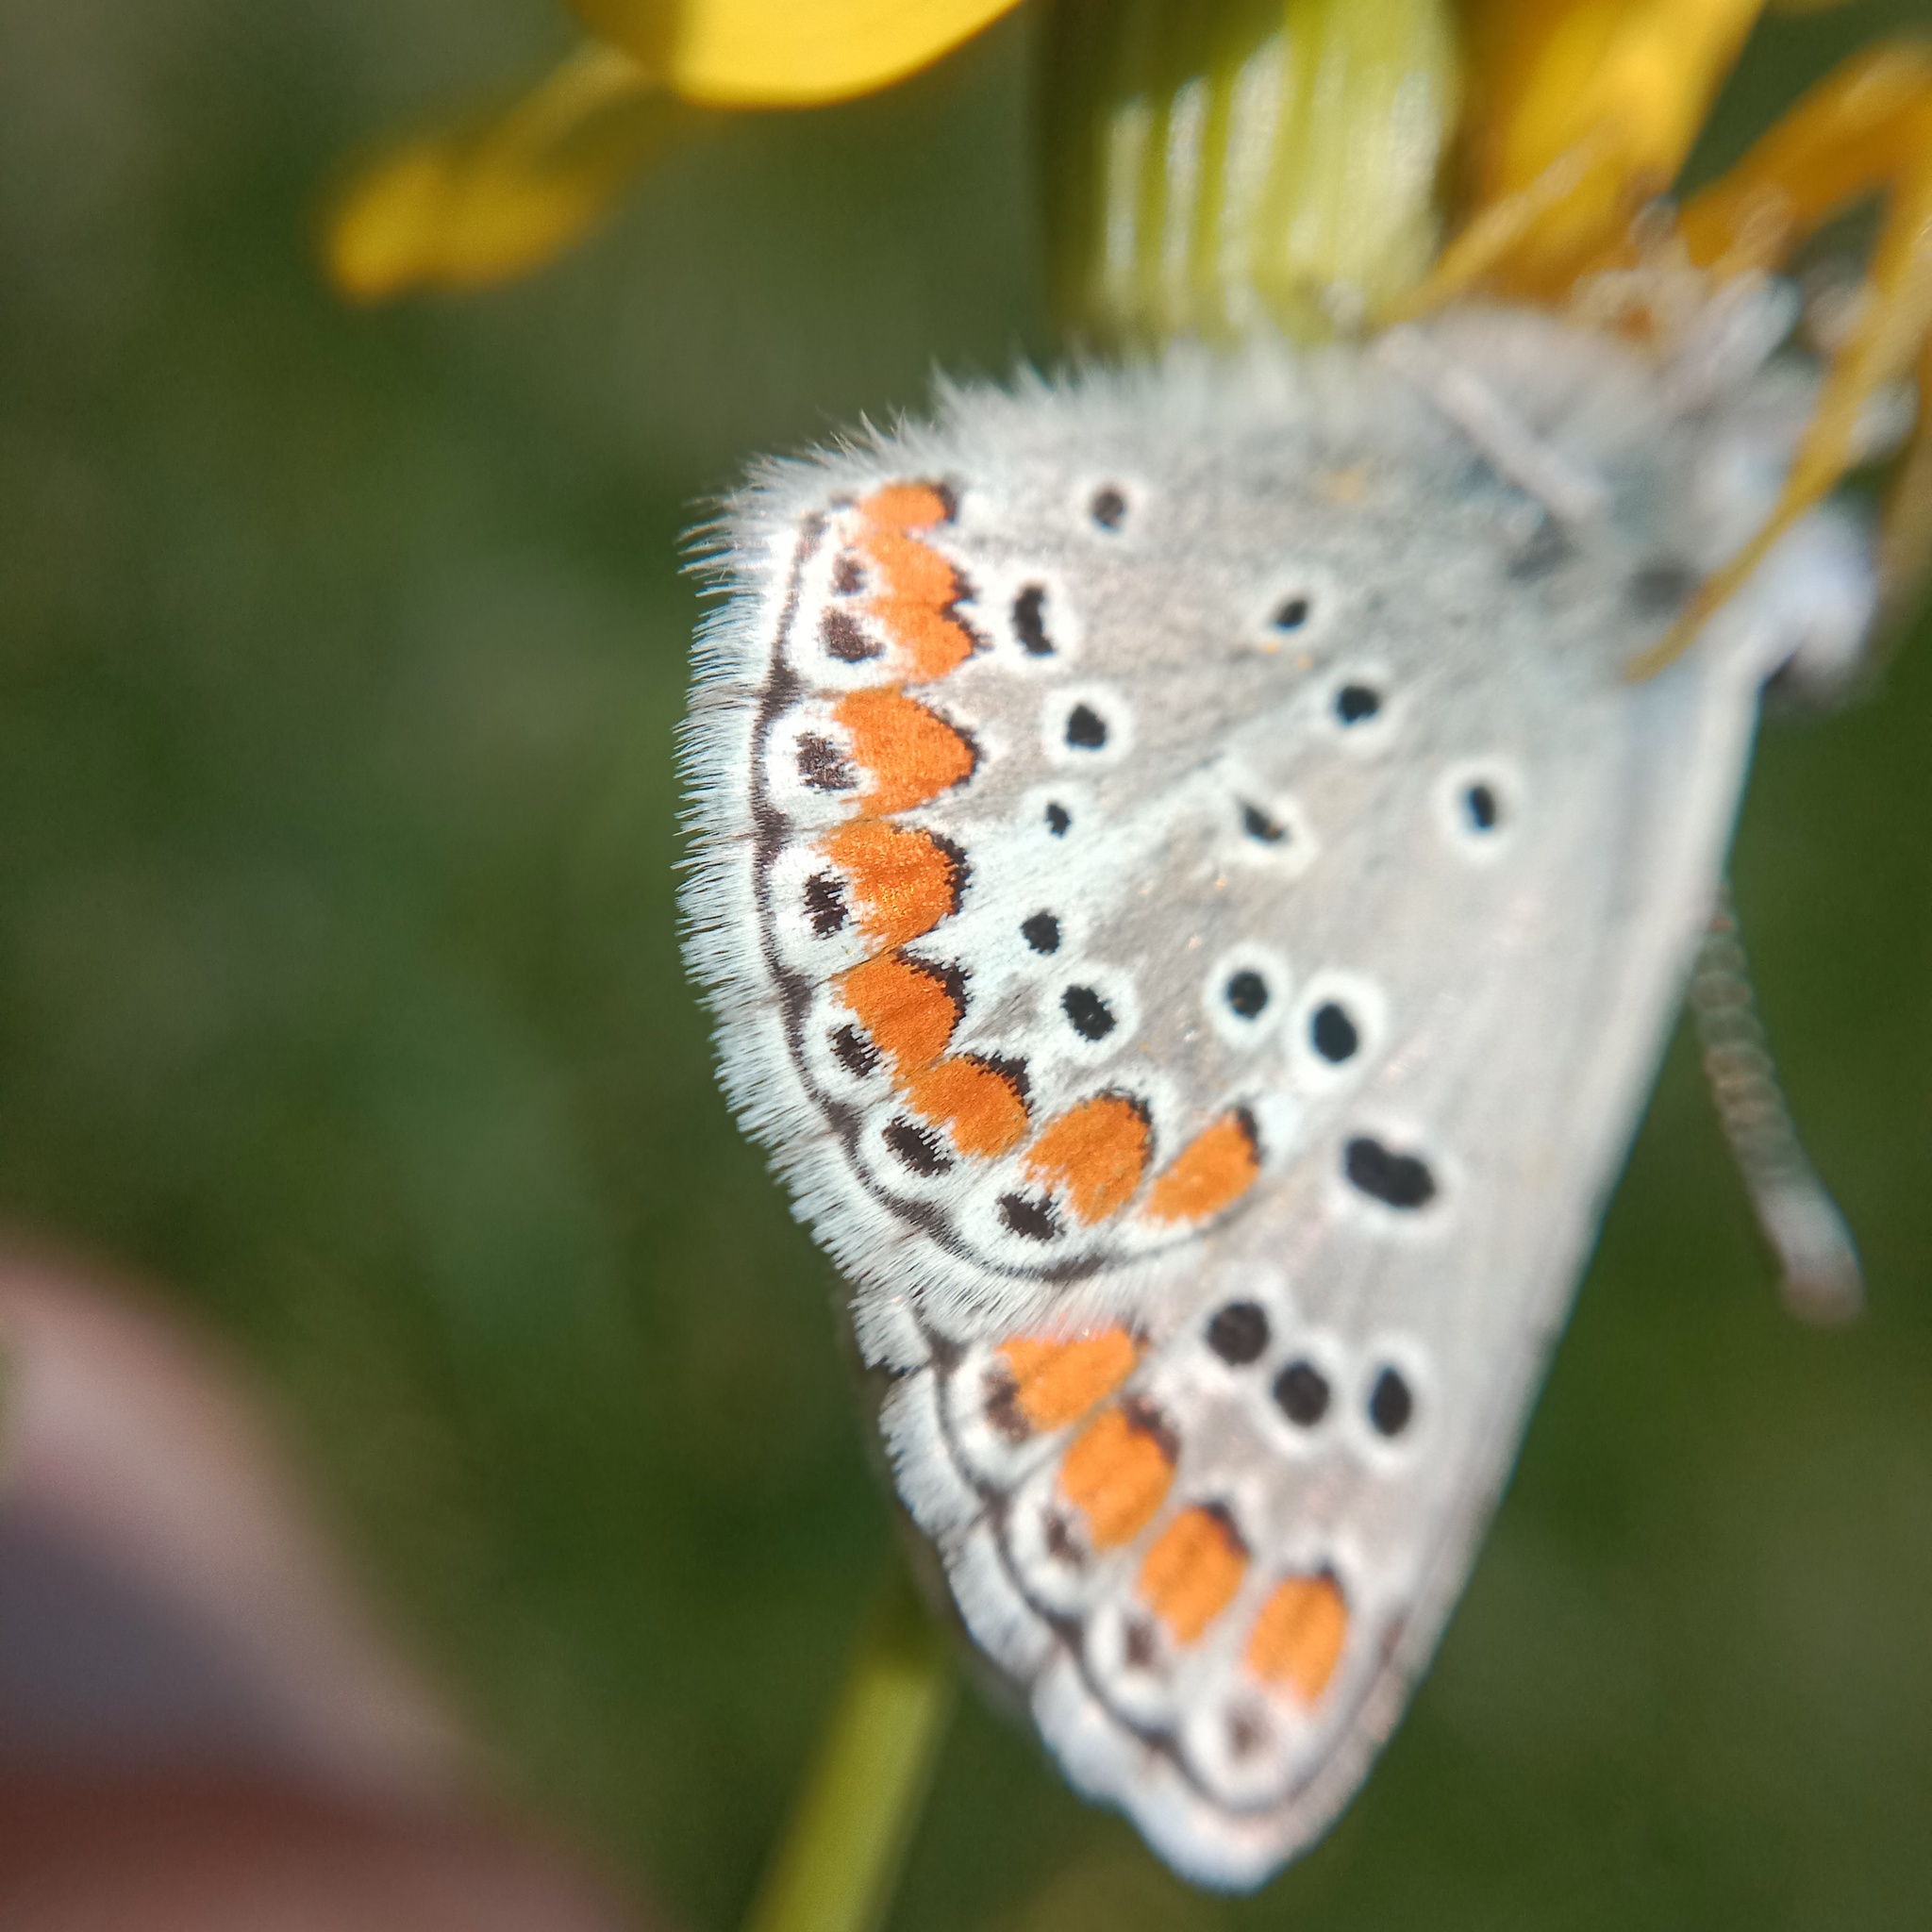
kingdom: Animalia
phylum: Arthropoda
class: Insecta
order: Lepidoptera
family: Lycaenidae
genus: Aricia
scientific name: Aricia agestis
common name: Brown argus
